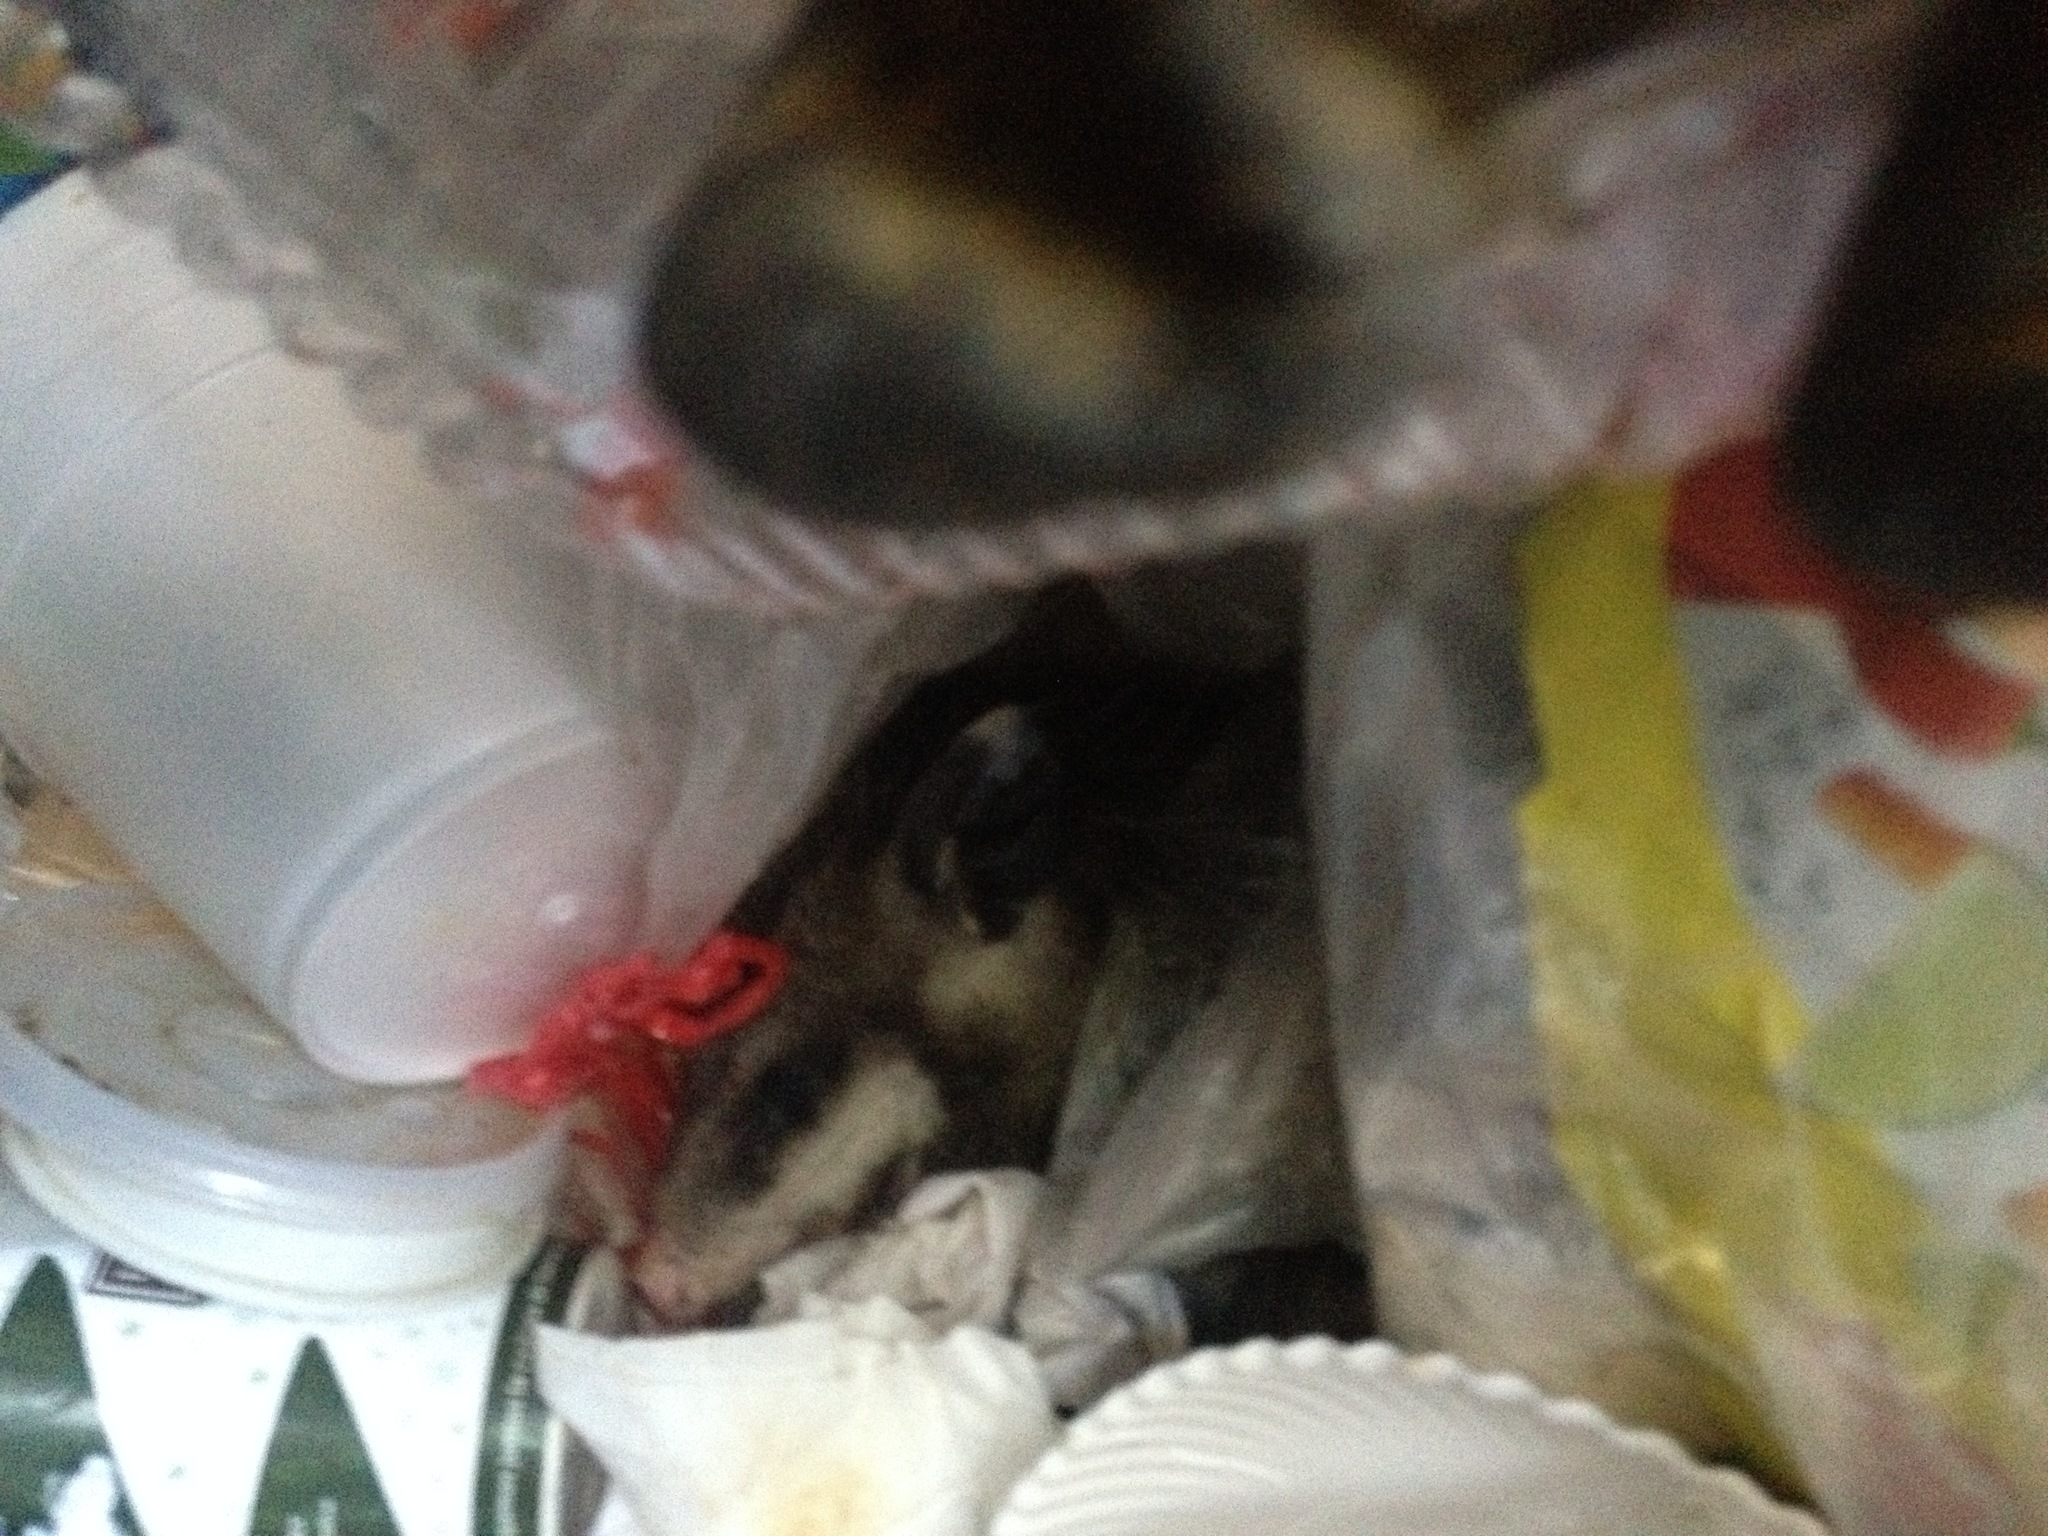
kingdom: Animalia
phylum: Chordata
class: Mammalia
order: Didelphimorphia
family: Didelphidae
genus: Didelphis
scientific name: Didelphis virginiana
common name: Virginia opossum
